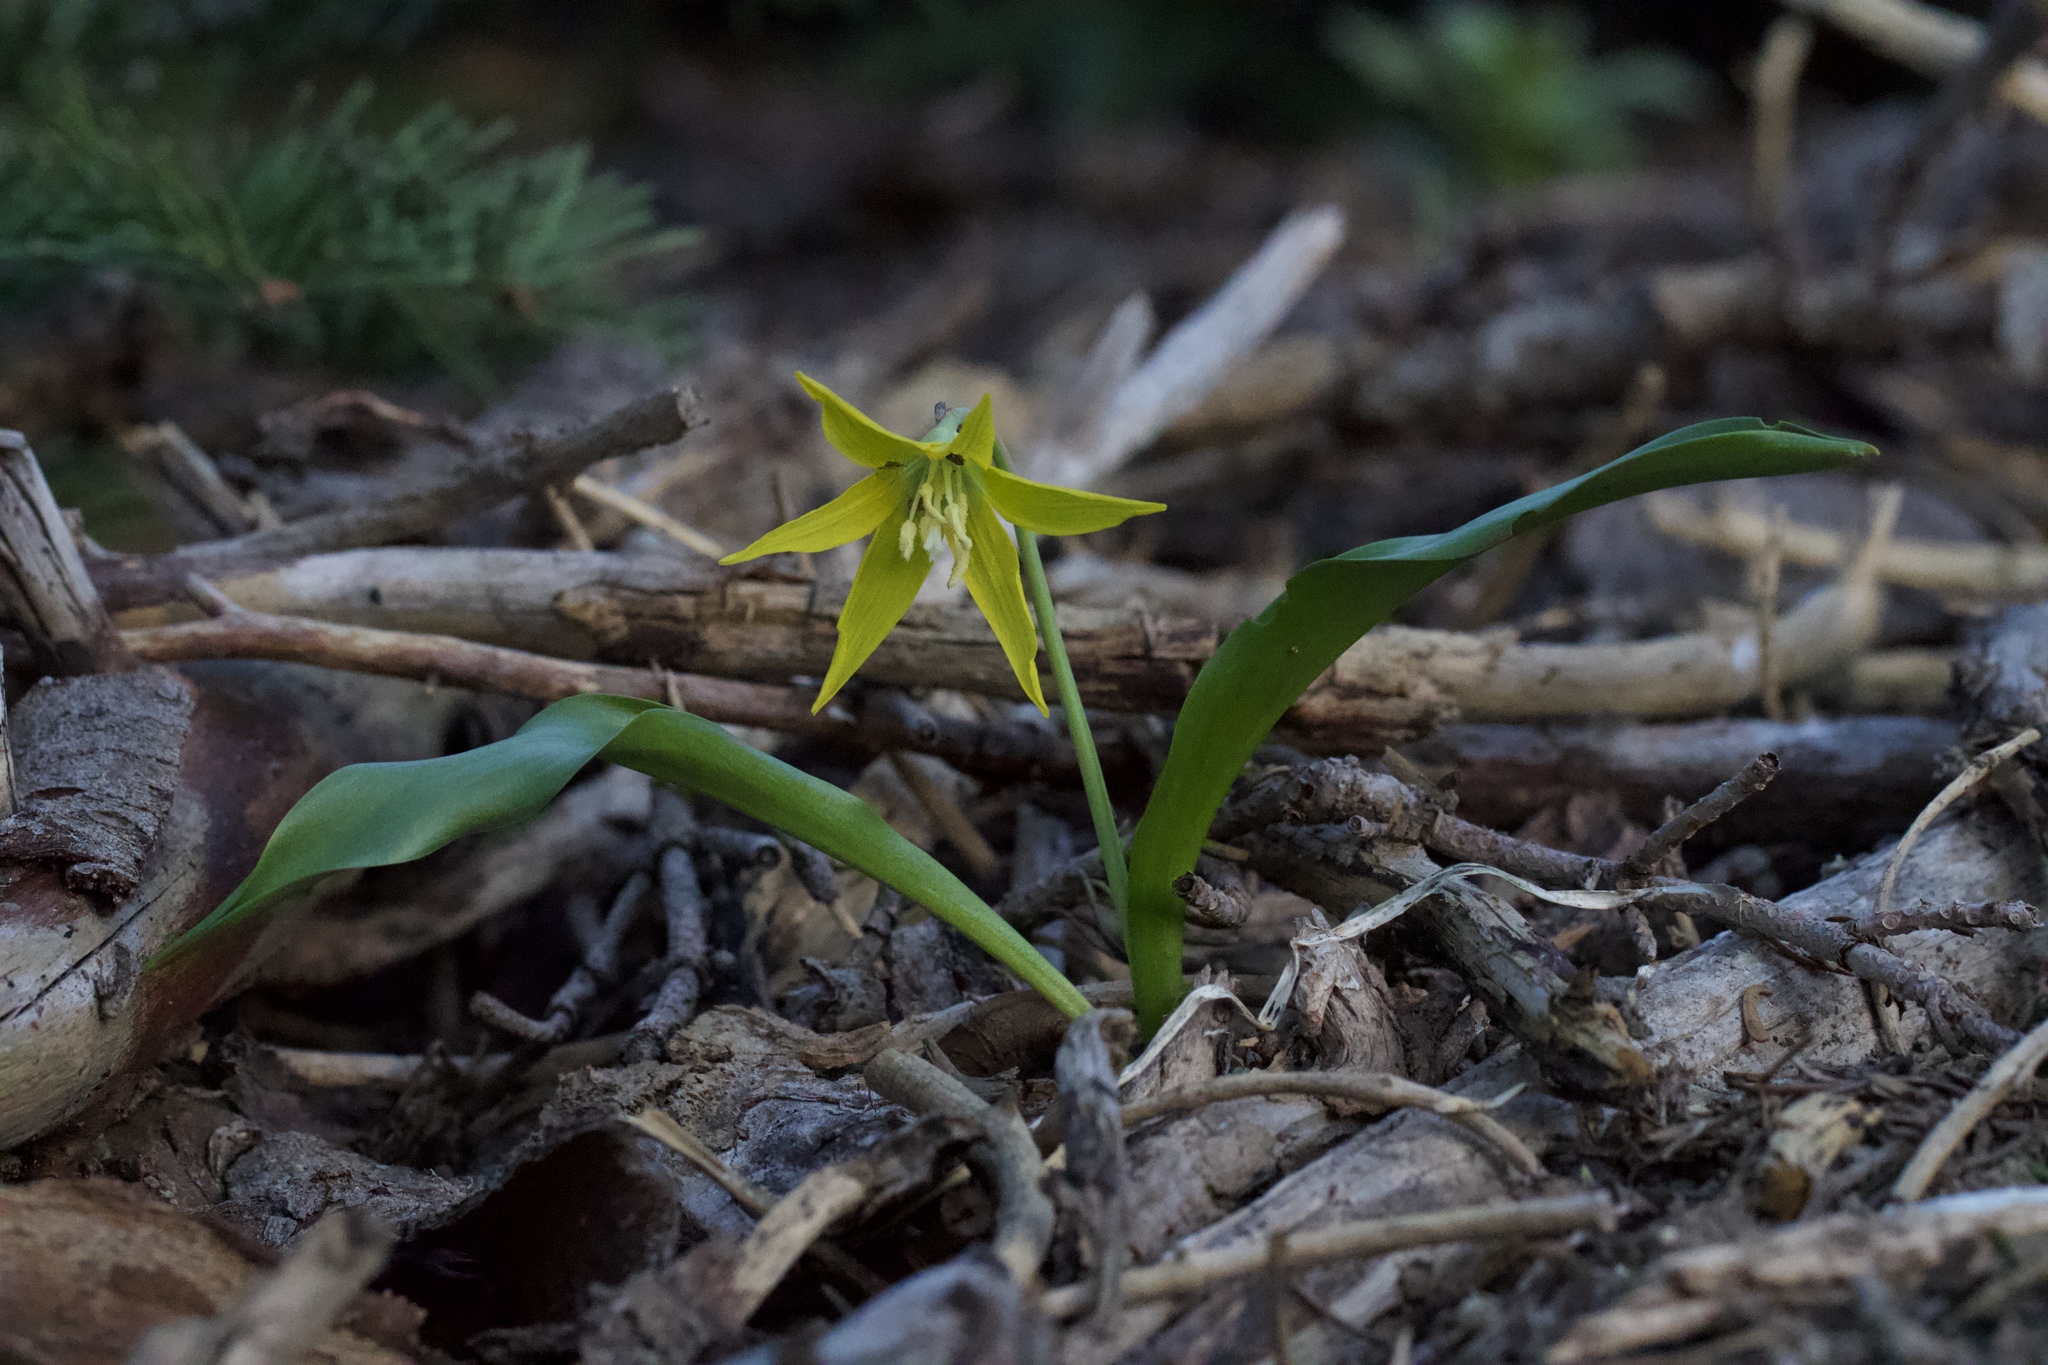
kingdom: Plantae
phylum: Tracheophyta
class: Liliopsida
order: Liliales
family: Liliaceae
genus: Erythronium
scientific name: Erythronium grandiflorum
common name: Avalanche-lily
